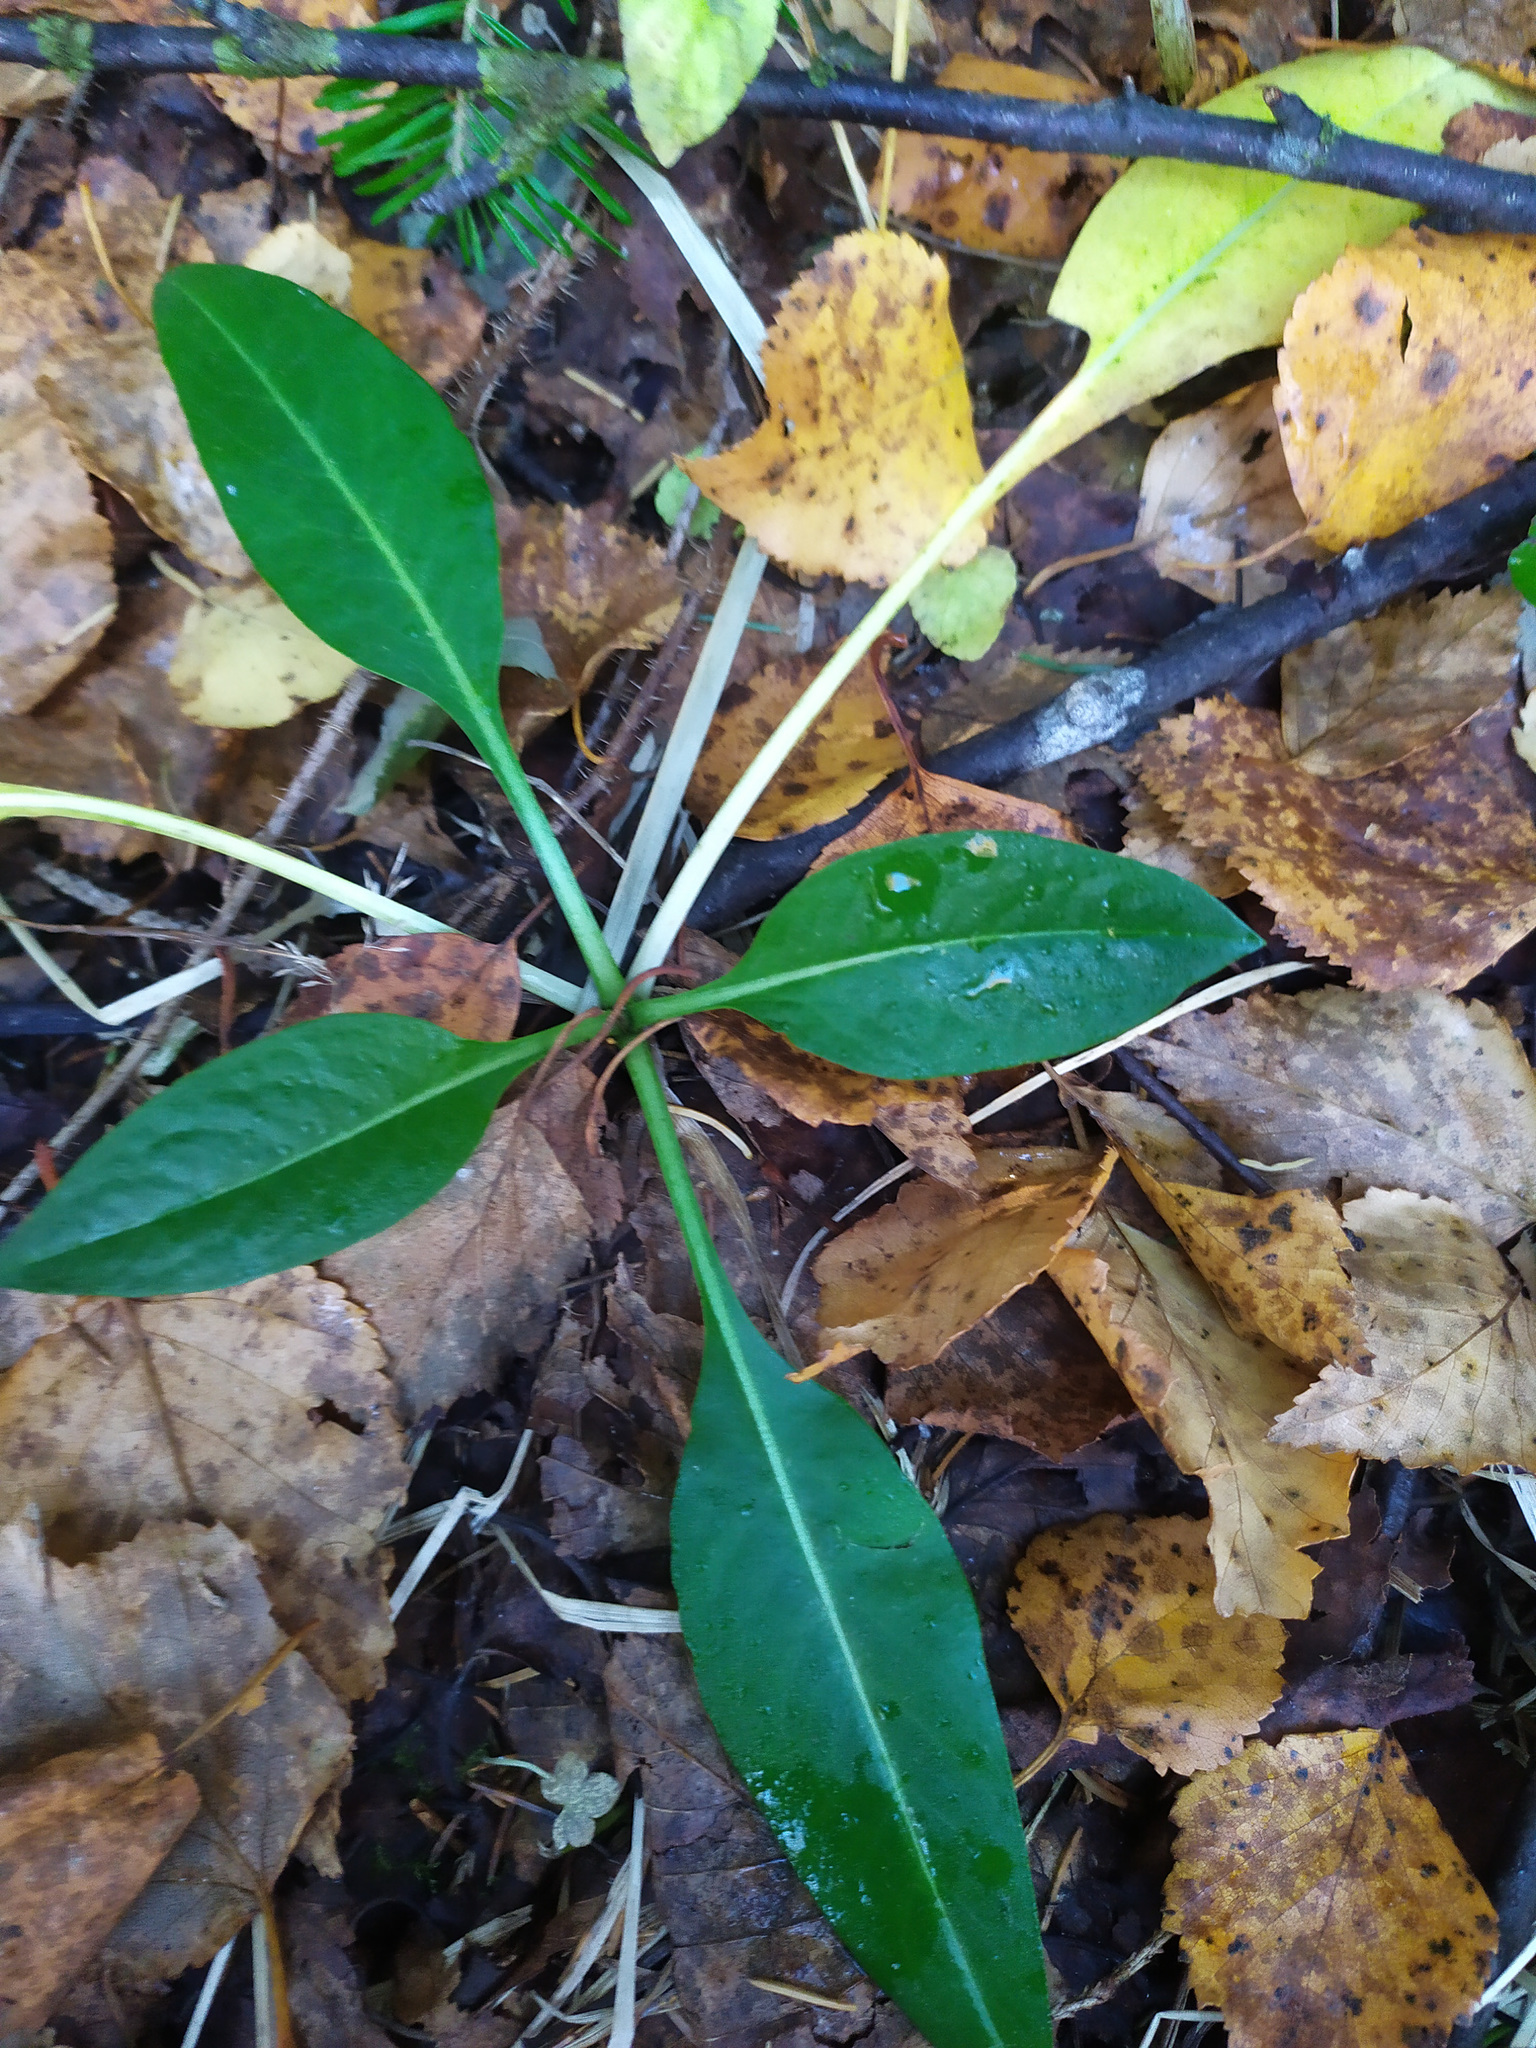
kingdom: Plantae
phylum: Tracheophyta
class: Magnoliopsida
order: Dipsacales
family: Caprifoliaceae
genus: Succisa
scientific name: Succisa pratensis
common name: Devil's-bit
